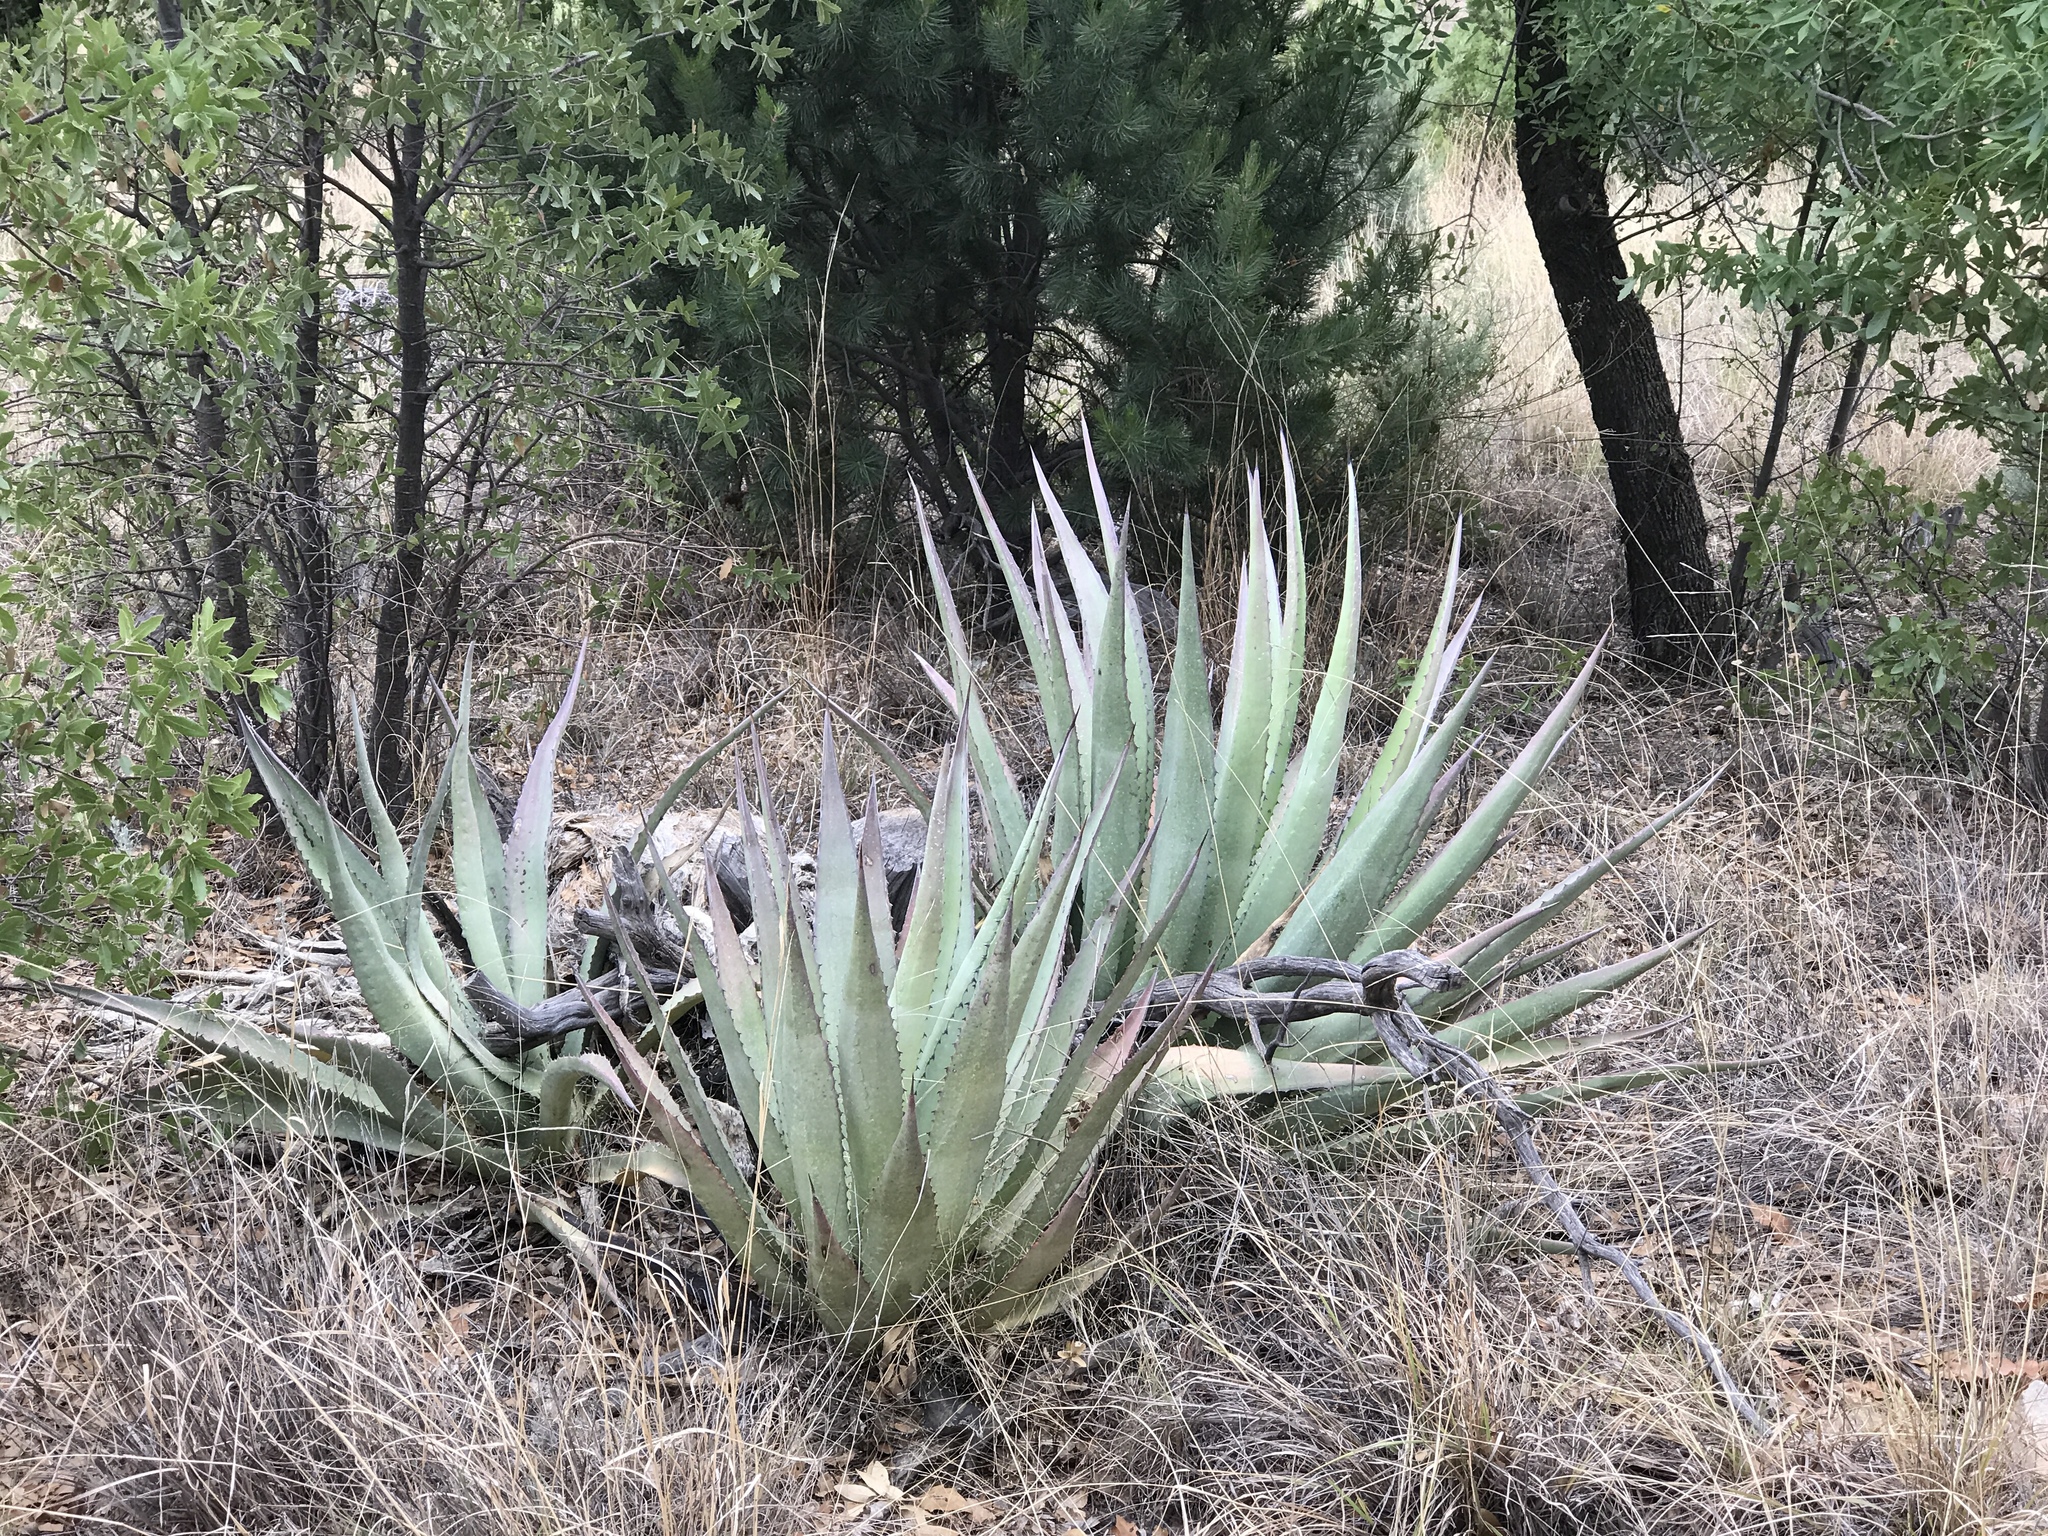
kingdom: Plantae
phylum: Tracheophyta
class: Liliopsida
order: Asparagales
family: Asparagaceae
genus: Agave
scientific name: Agave palmeri
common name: Palmer agave
